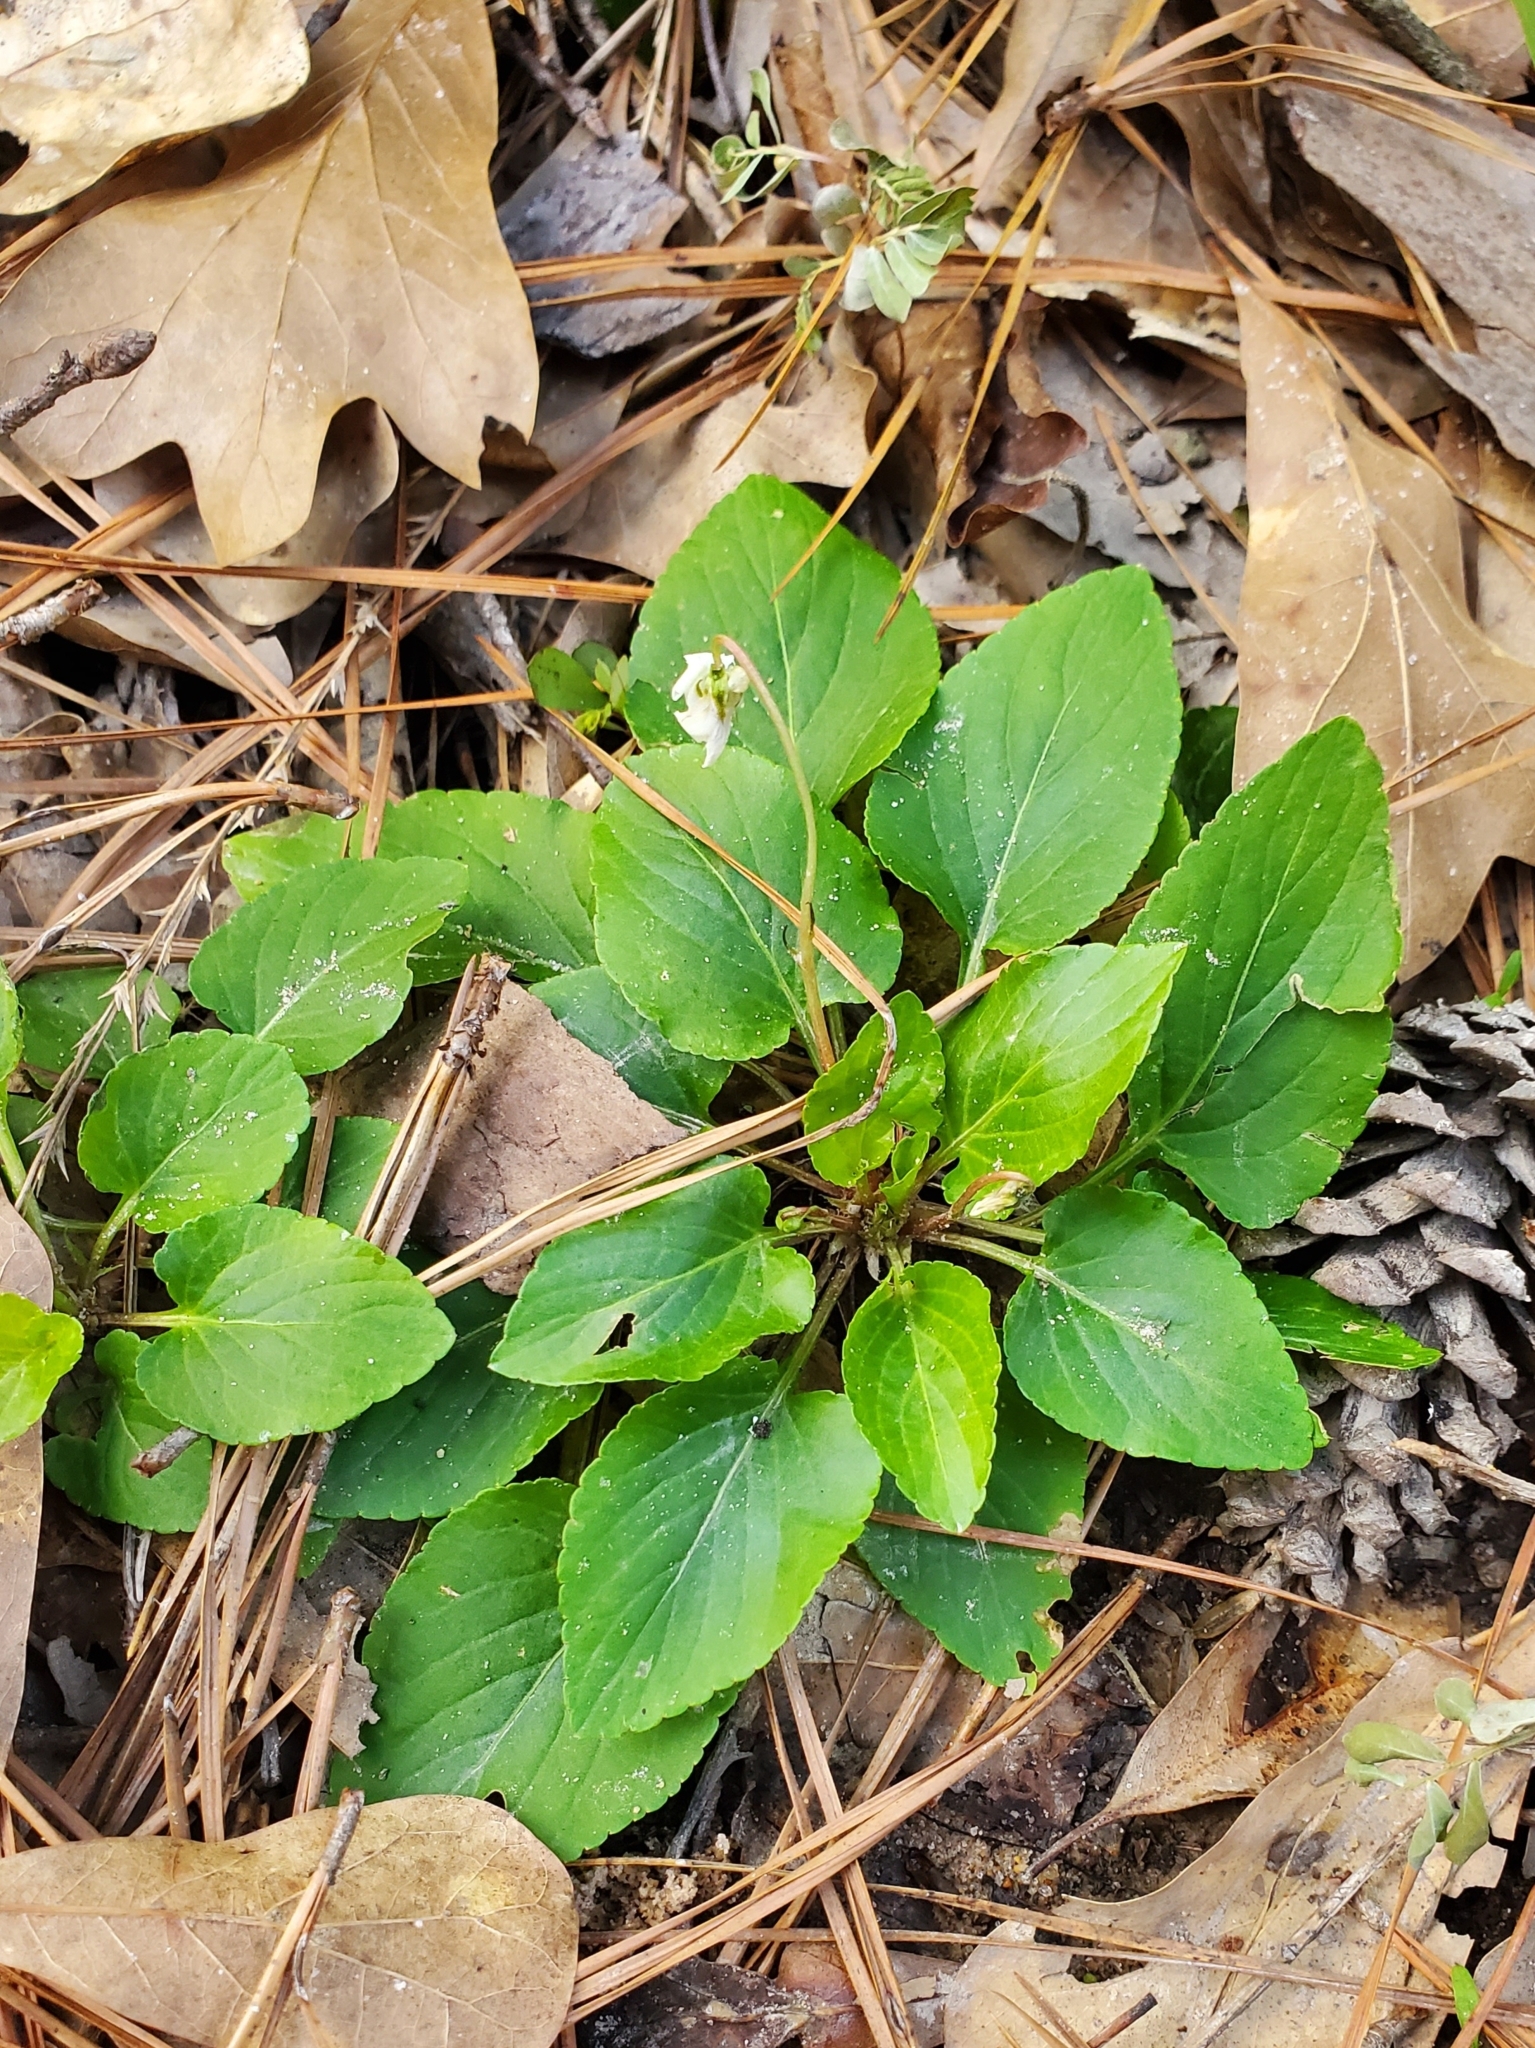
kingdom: Plantae
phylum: Tracheophyta
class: Magnoliopsida
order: Malpighiales
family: Violaceae
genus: Viola
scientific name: Viola primulifolia
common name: Primrose-leaf violet
